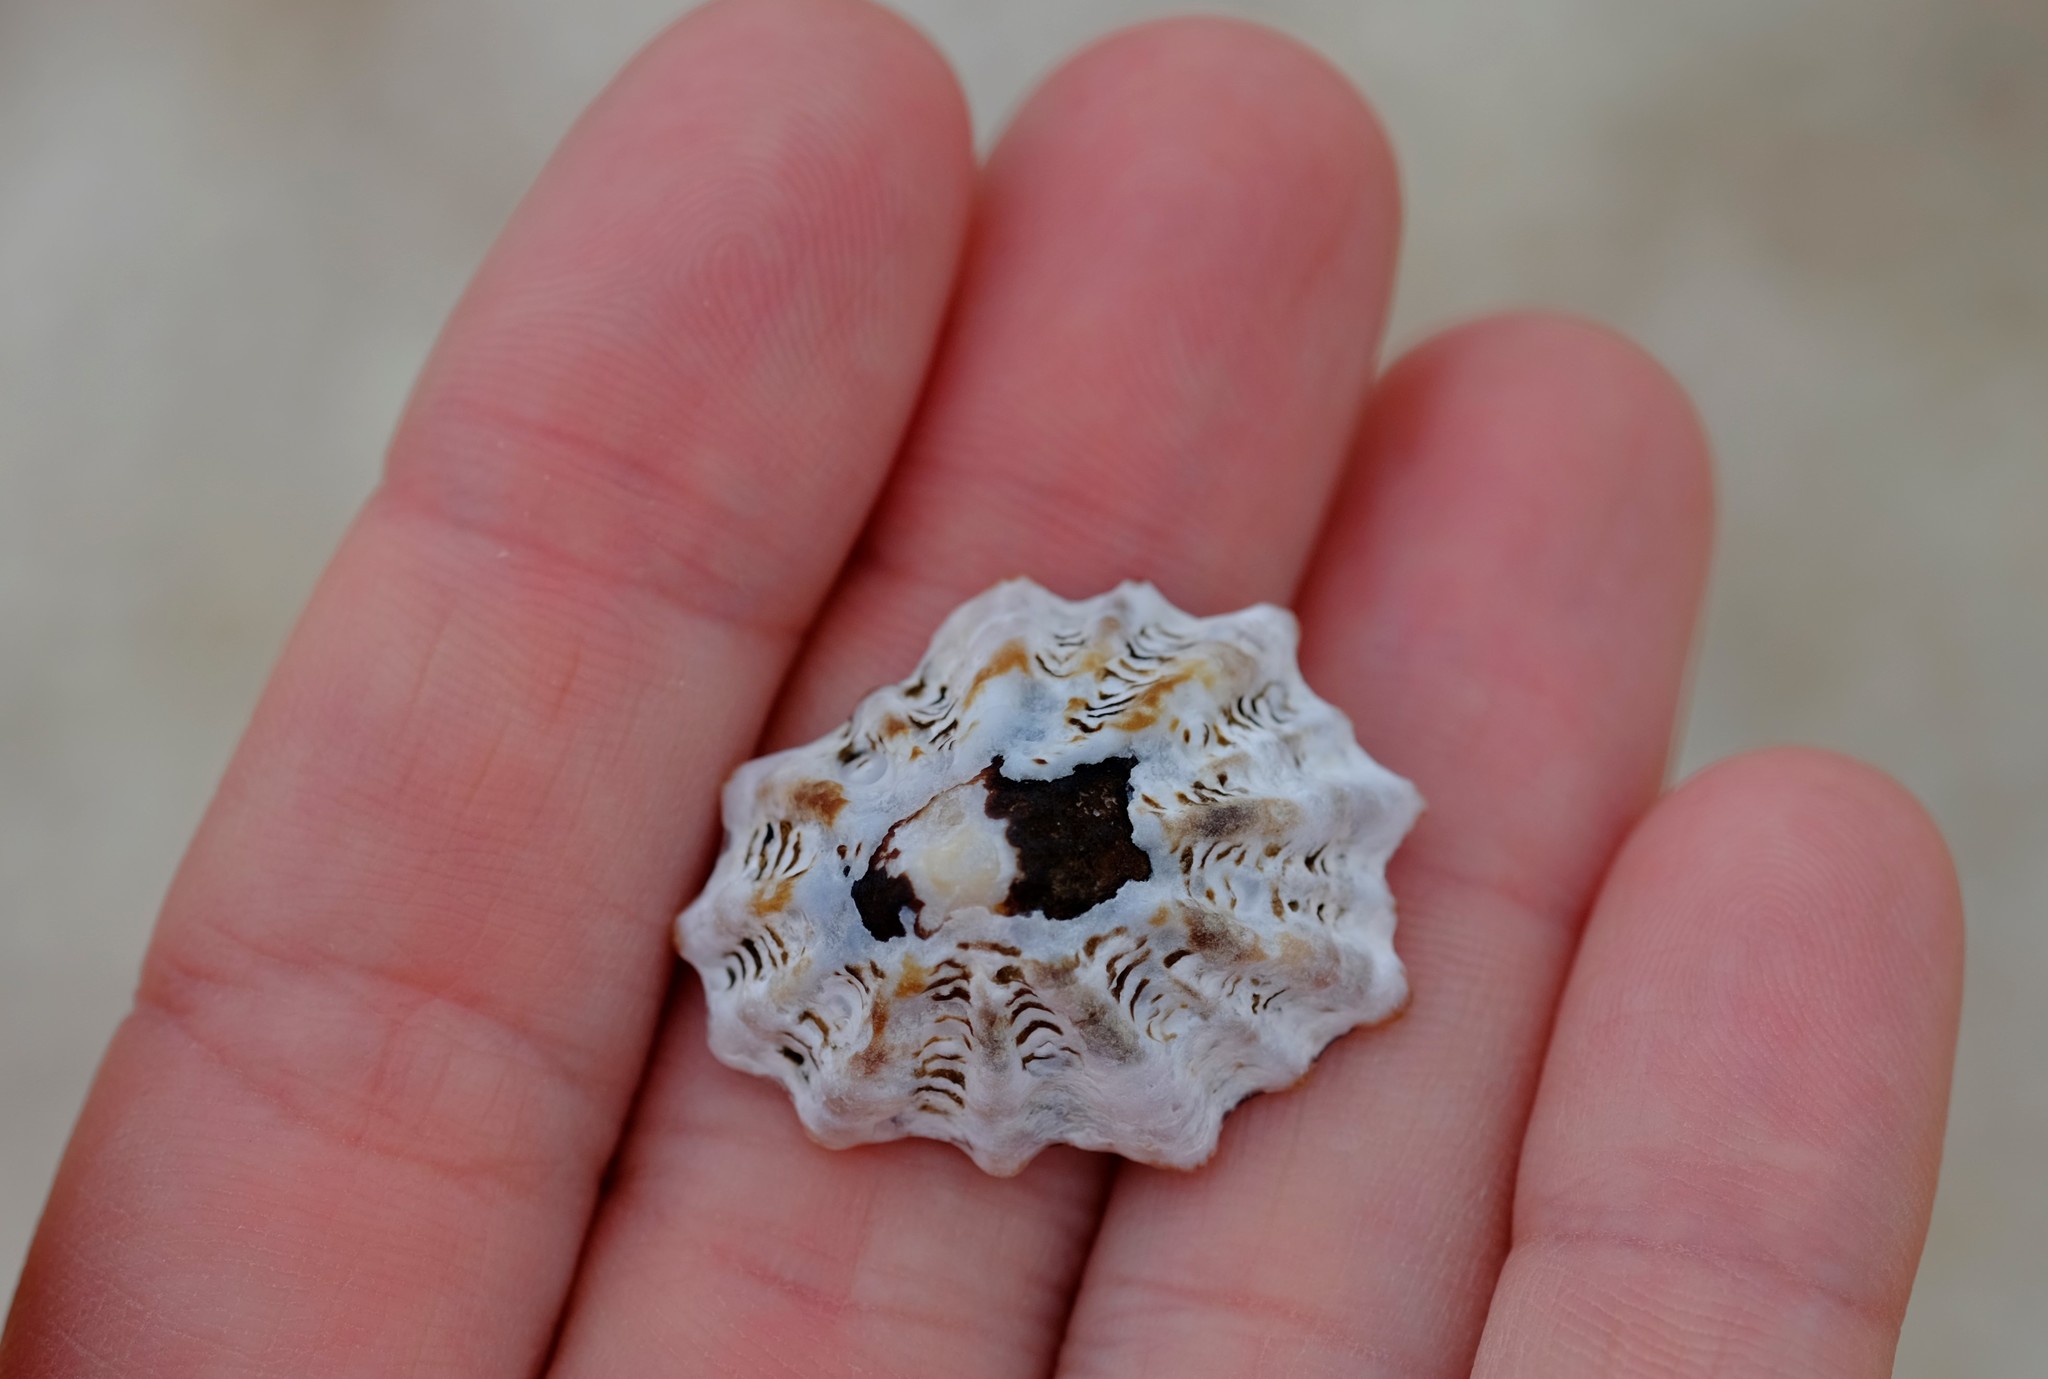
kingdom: Animalia
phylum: Mollusca
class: Gastropoda
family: Lottiidae
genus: Patelloida
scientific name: Patelloida alticostata
